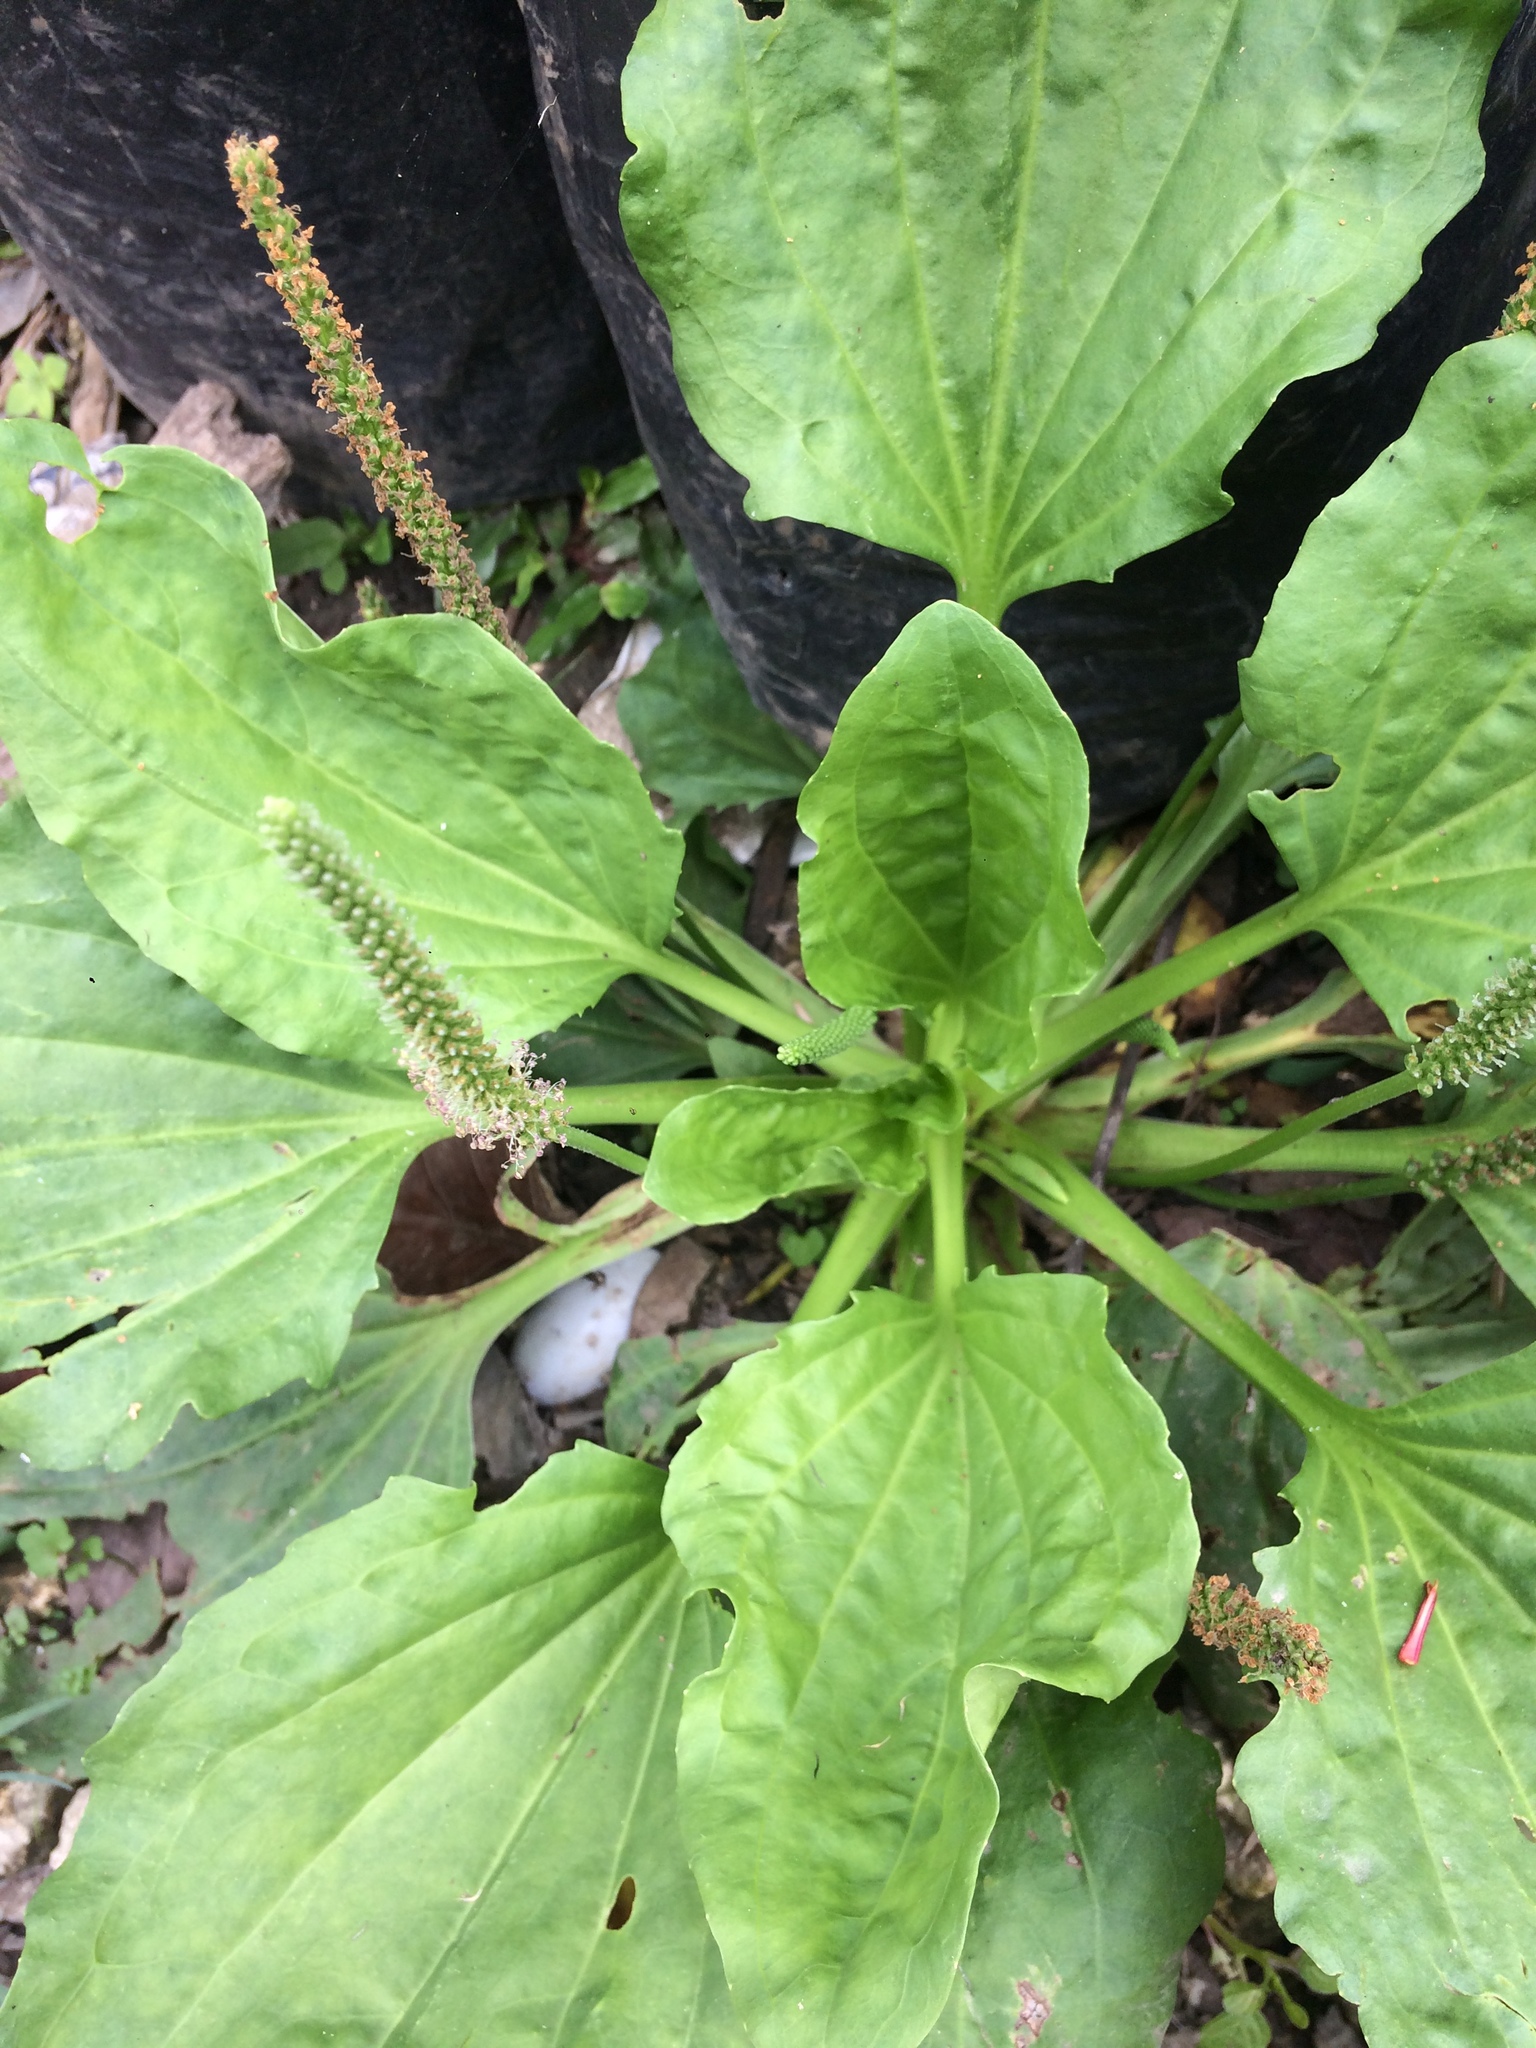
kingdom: Plantae
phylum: Tracheophyta
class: Magnoliopsida
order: Lamiales
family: Plantaginaceae
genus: Plantago
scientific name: Plantago major
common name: Common plantain
